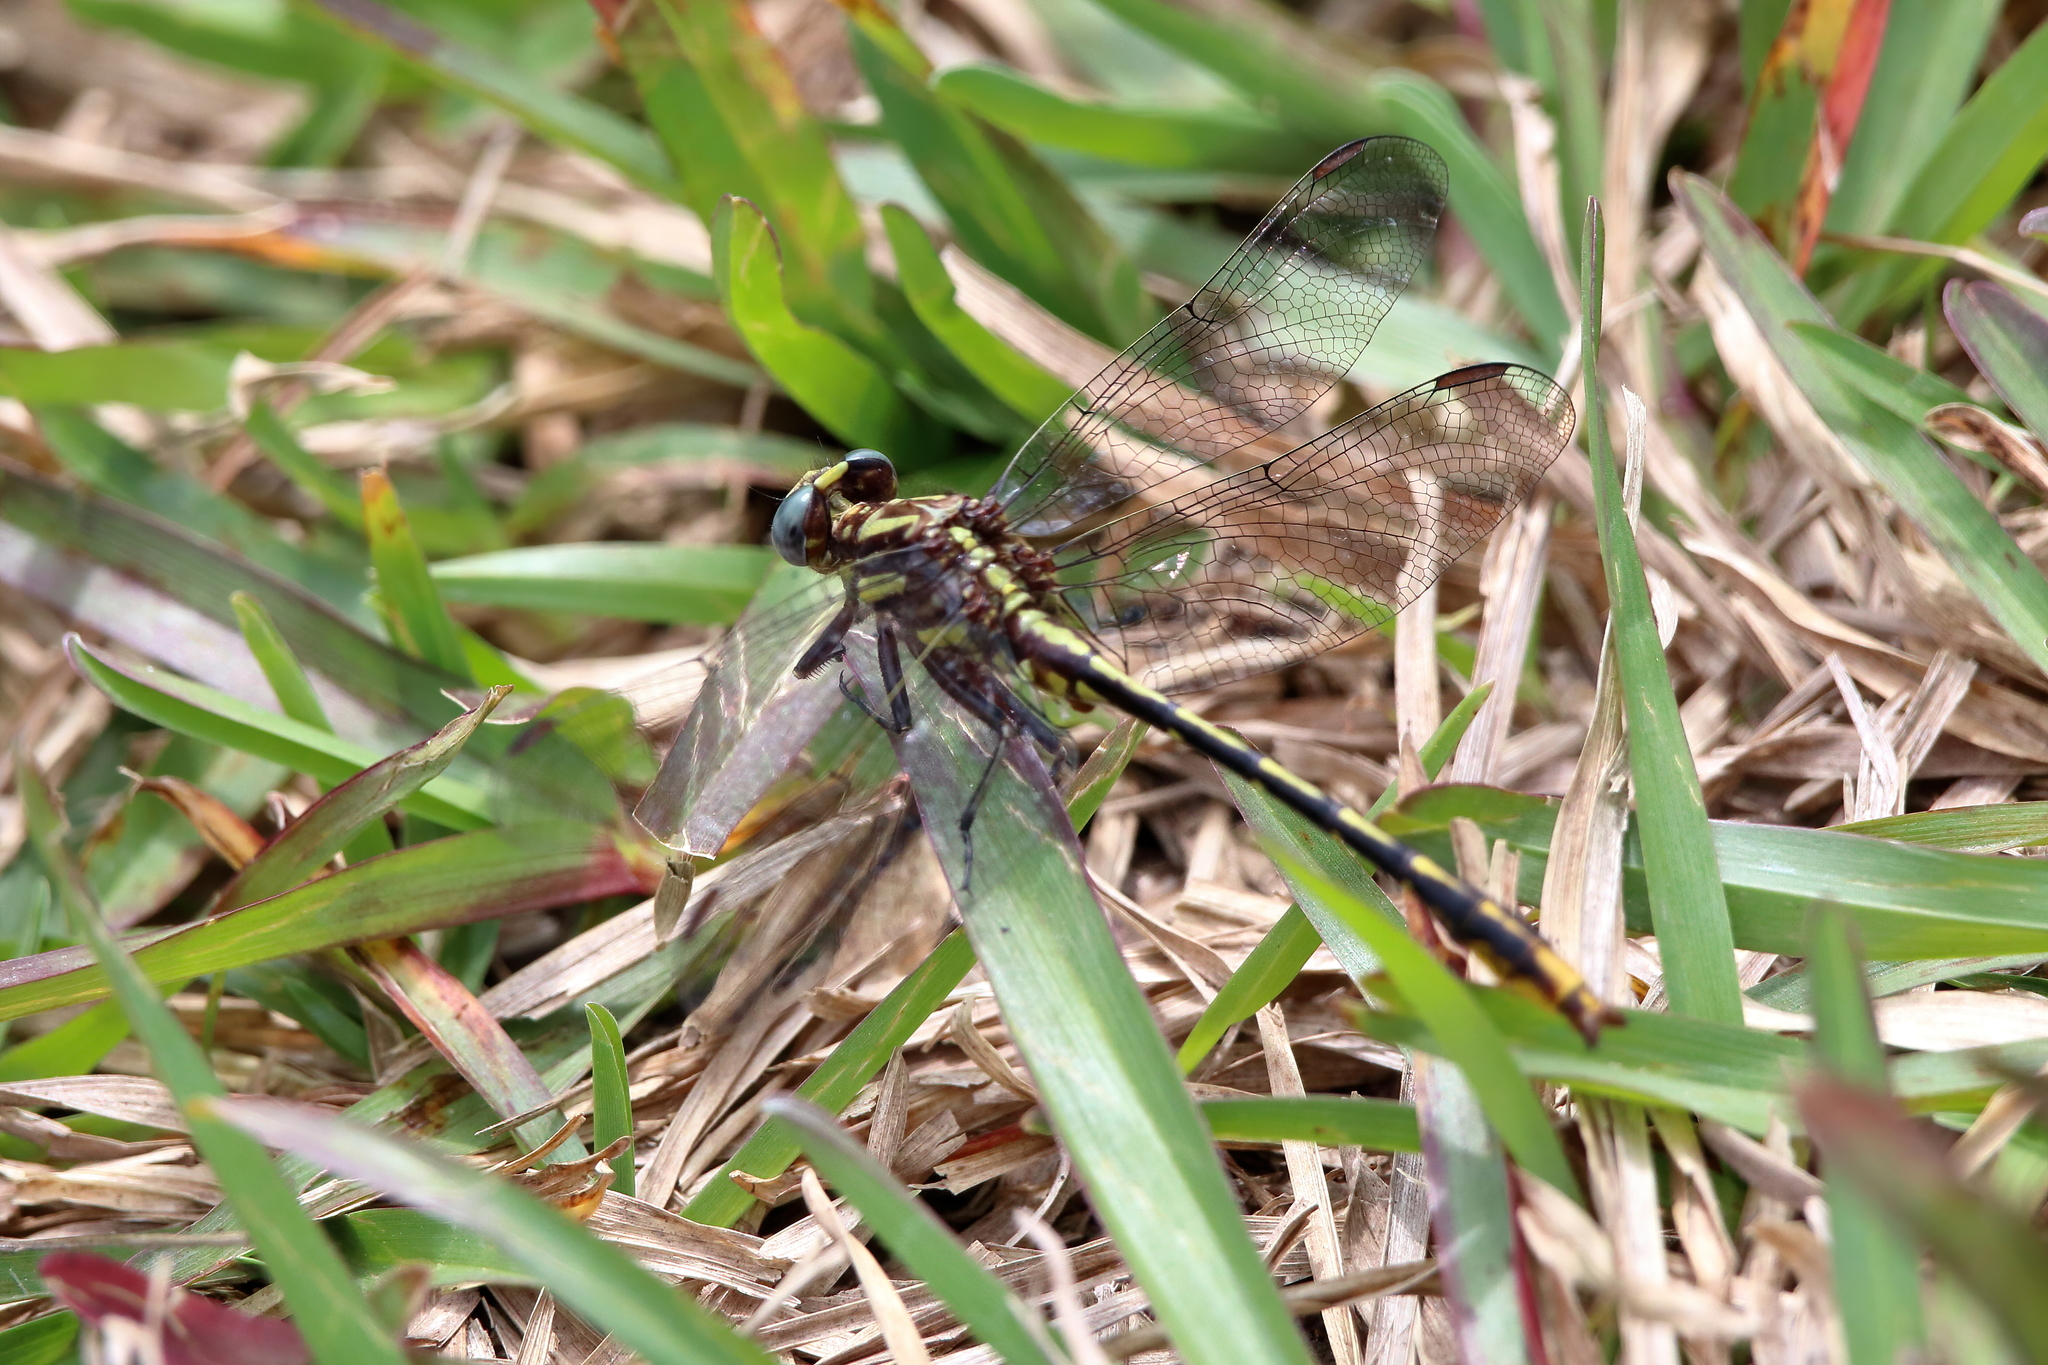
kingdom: Animalia
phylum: Arthropoda
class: Insecta
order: Odonata
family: Gomphidae
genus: Phanogomphus
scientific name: Phanogomphus exilis
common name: Lancet clubtail
